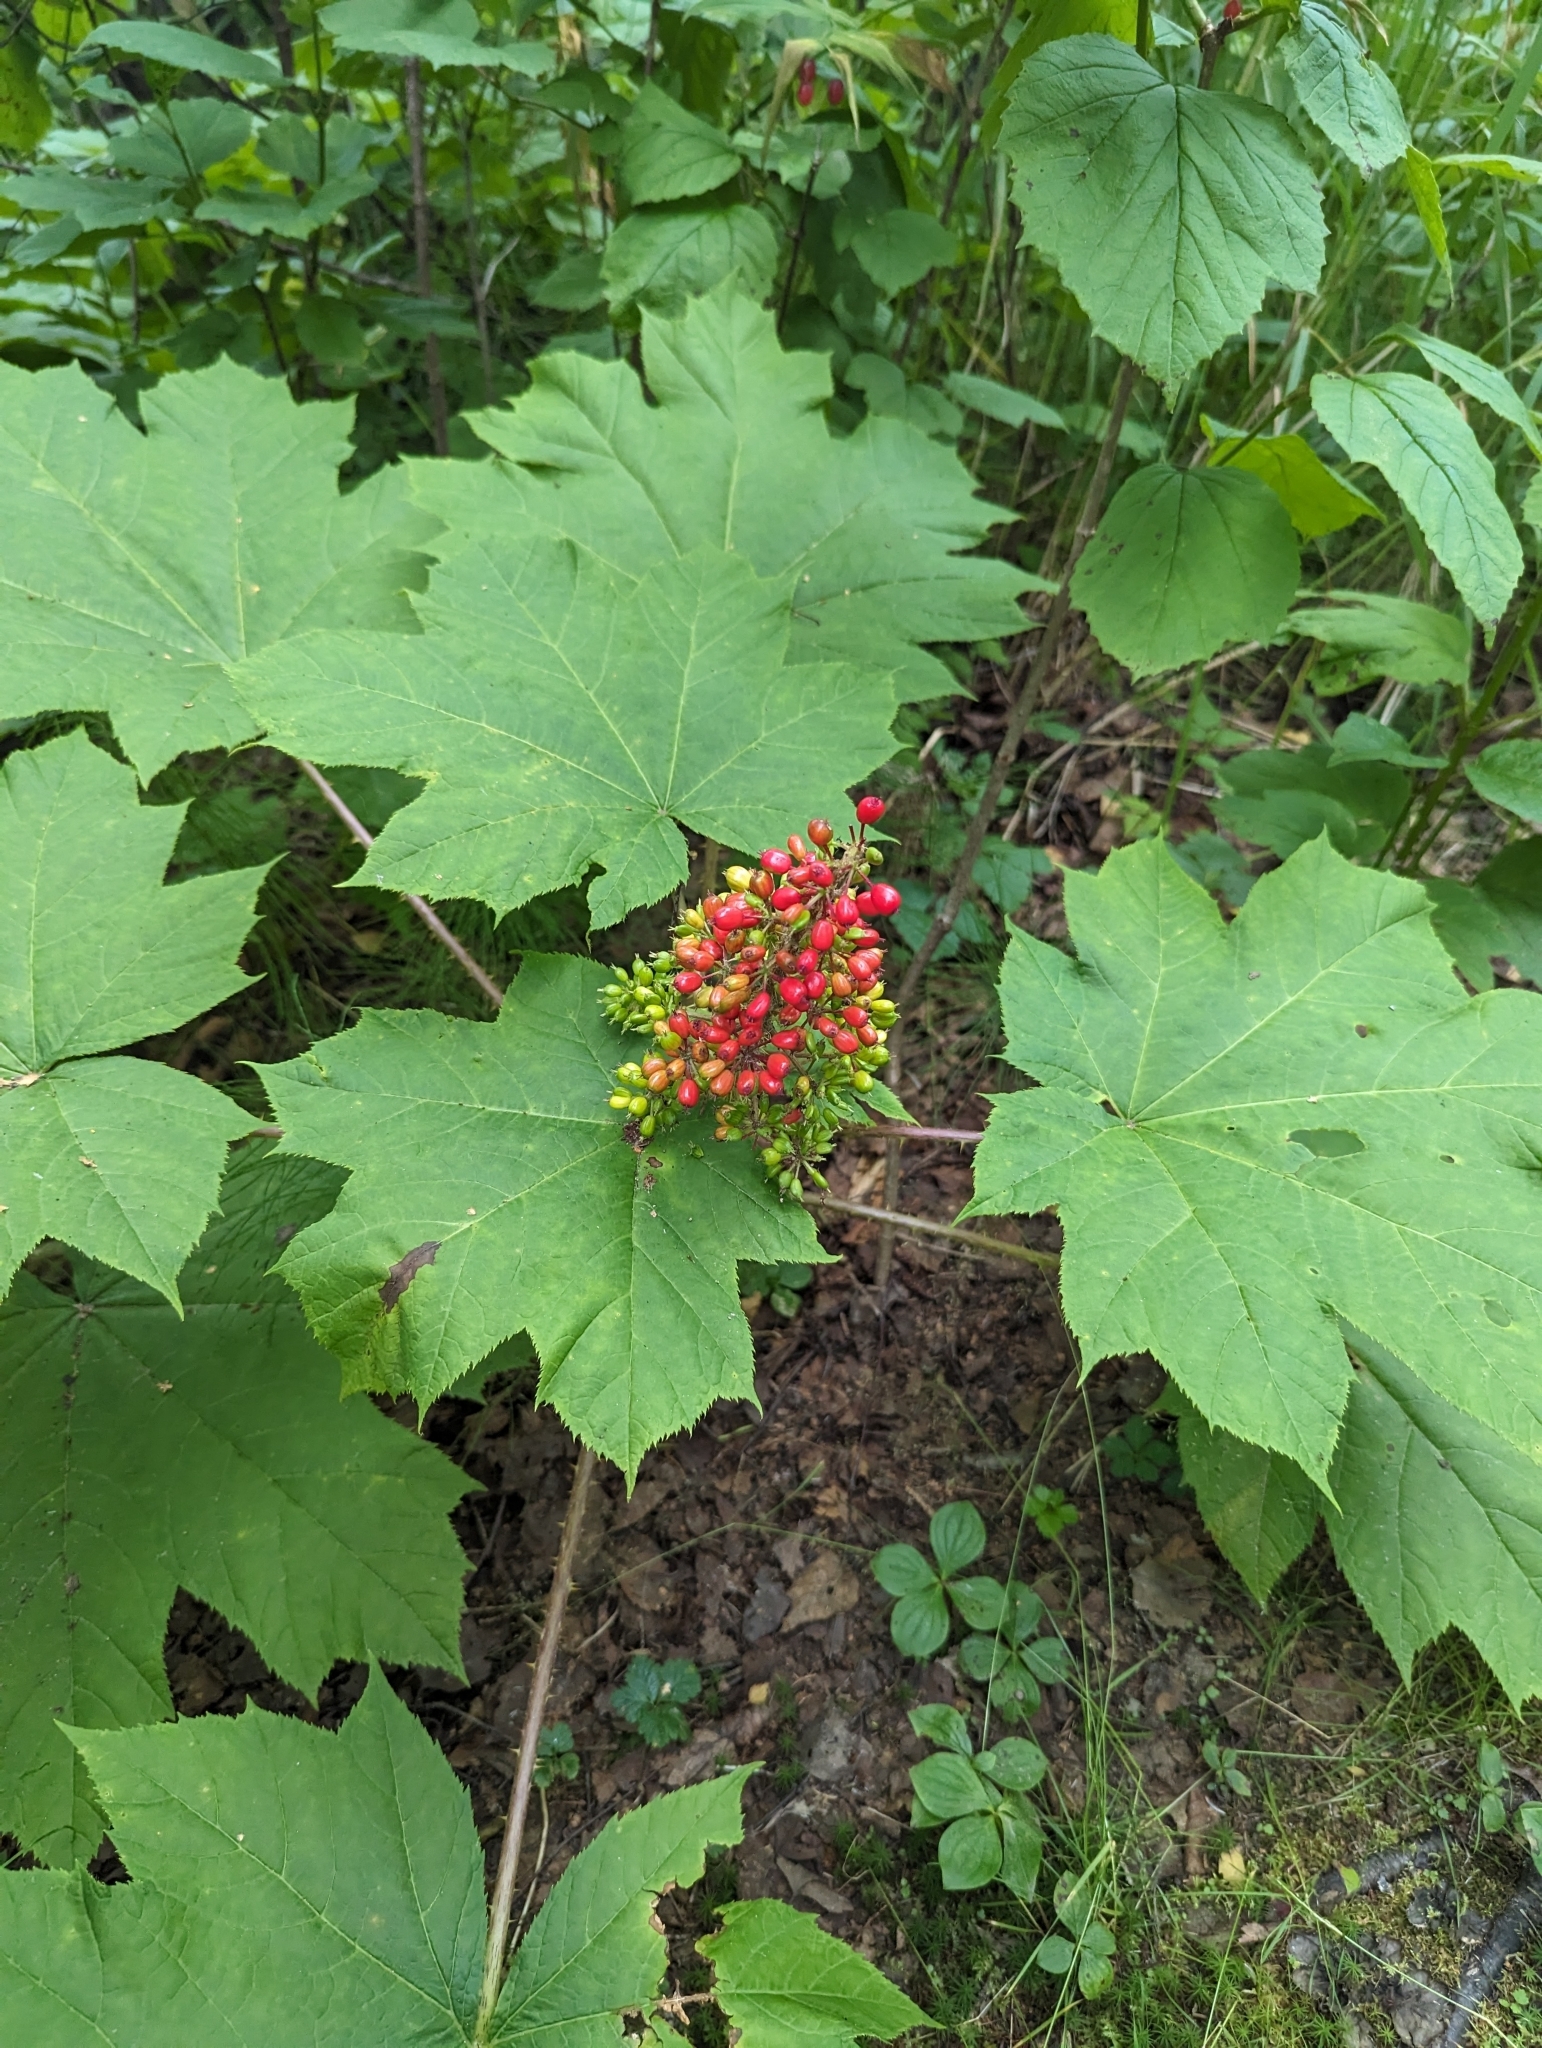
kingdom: Plantae
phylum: Tracheophyta
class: Magnoliopsida
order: Apiales
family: Araliaceae
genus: Oplopanax
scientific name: Oplopanax horridus
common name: Devil's walking-stick
